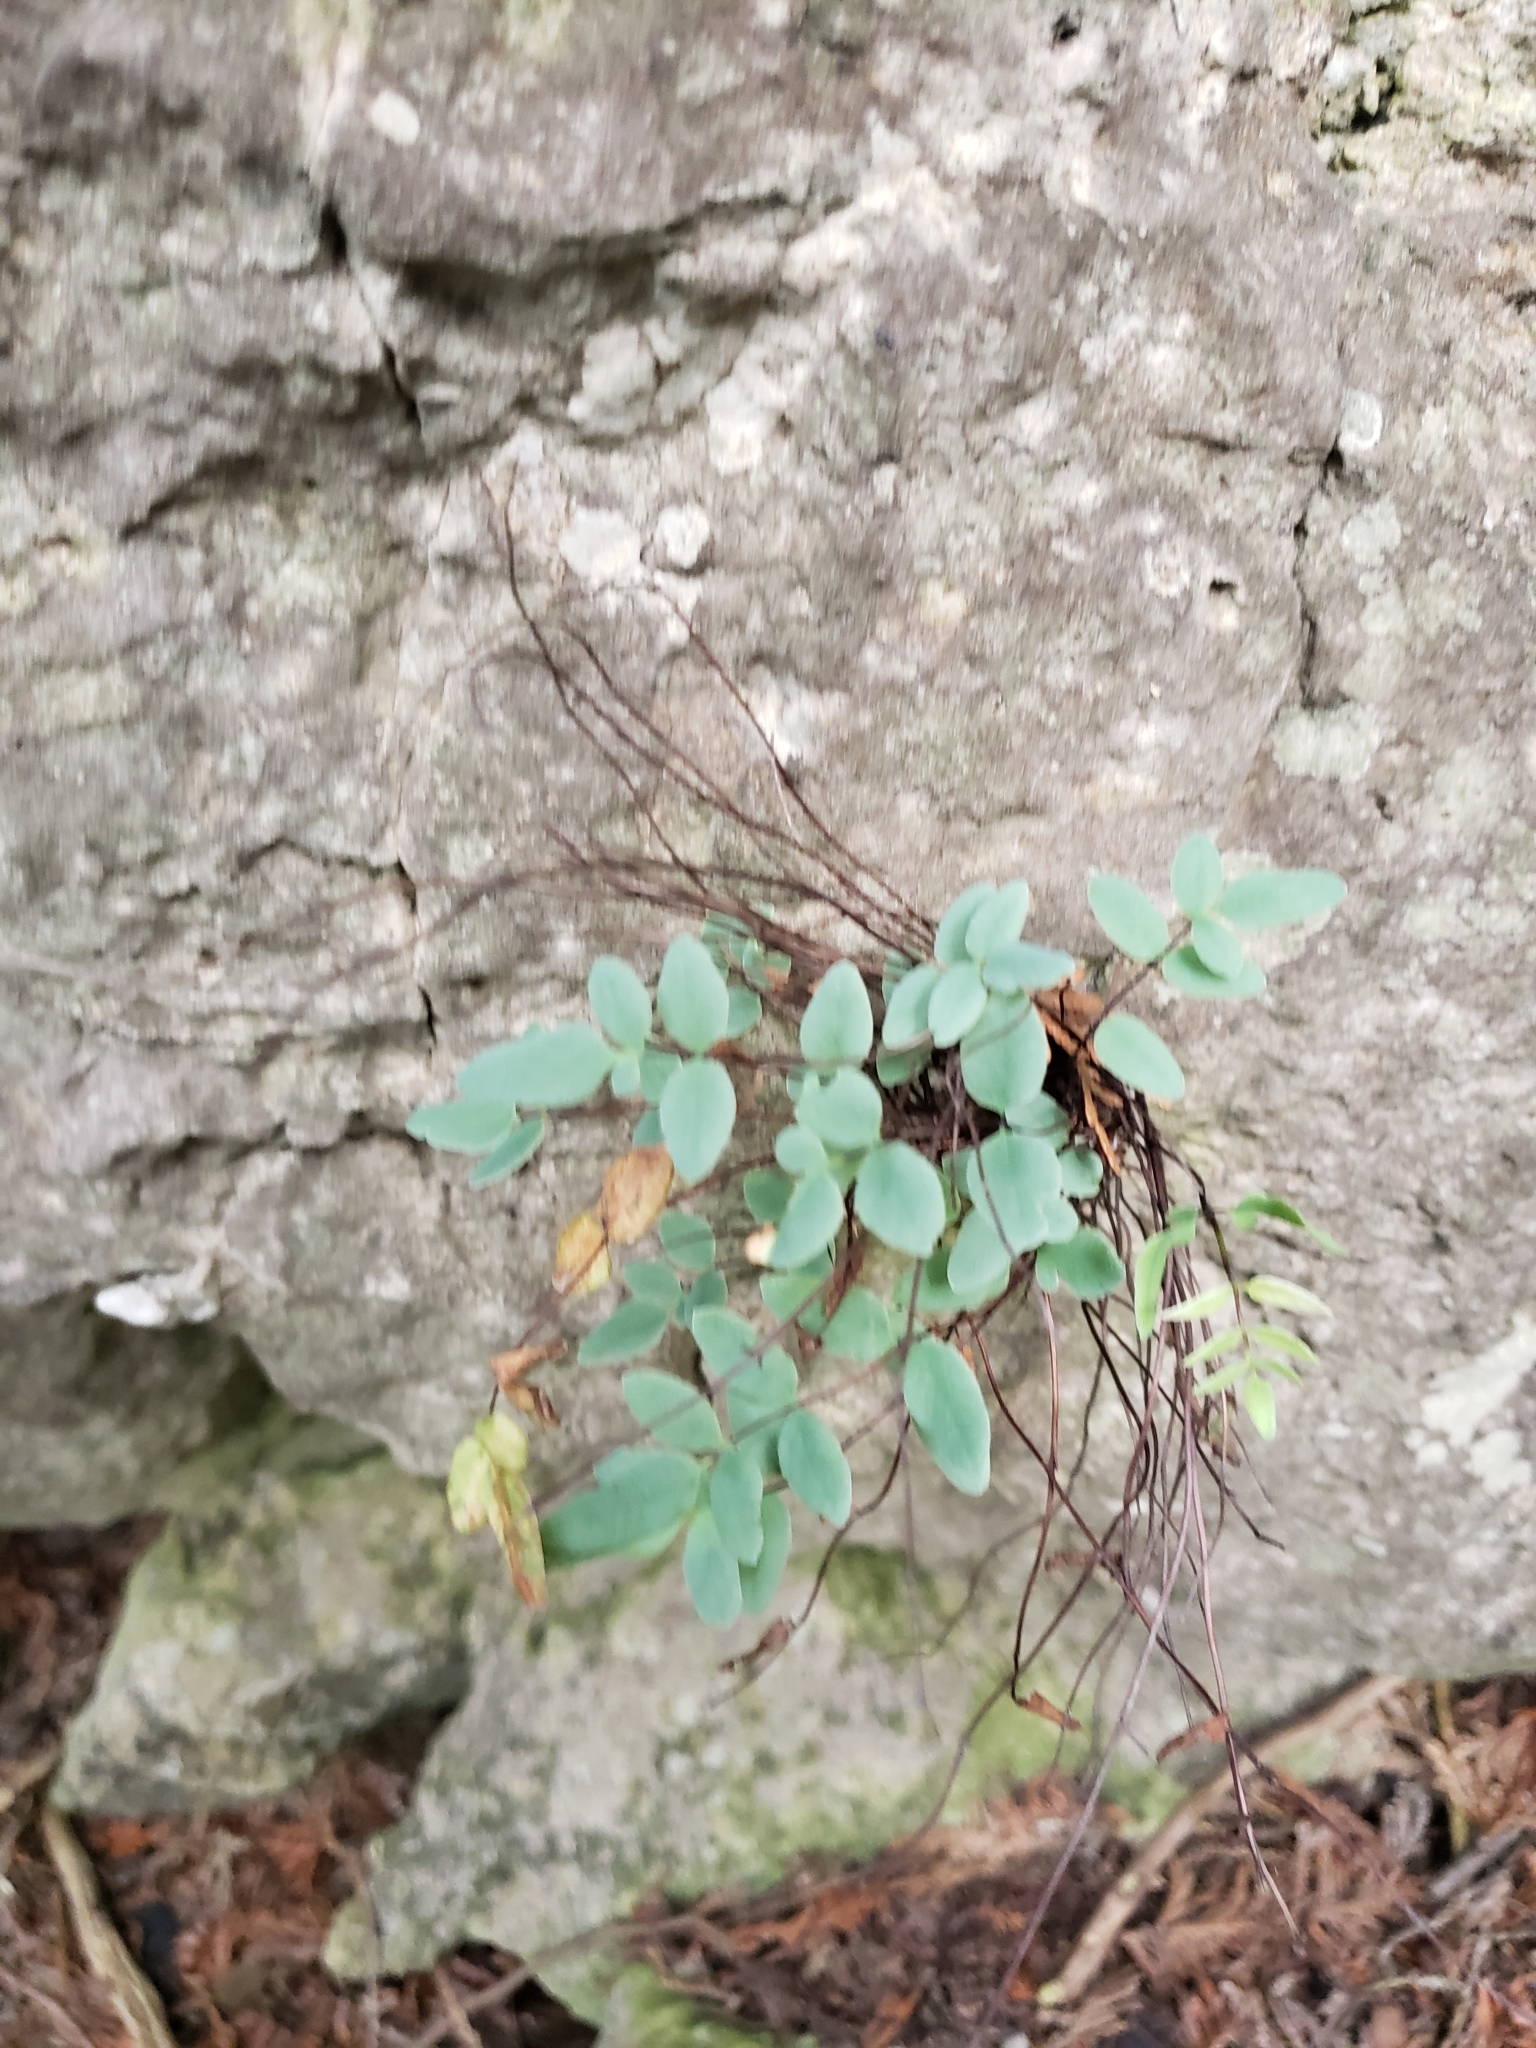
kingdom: Plantae
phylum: Tracheophyta
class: Polypodiopsida
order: Polypodiales
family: Pteridaceae
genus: Pellaea
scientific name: Pellaea glabella
